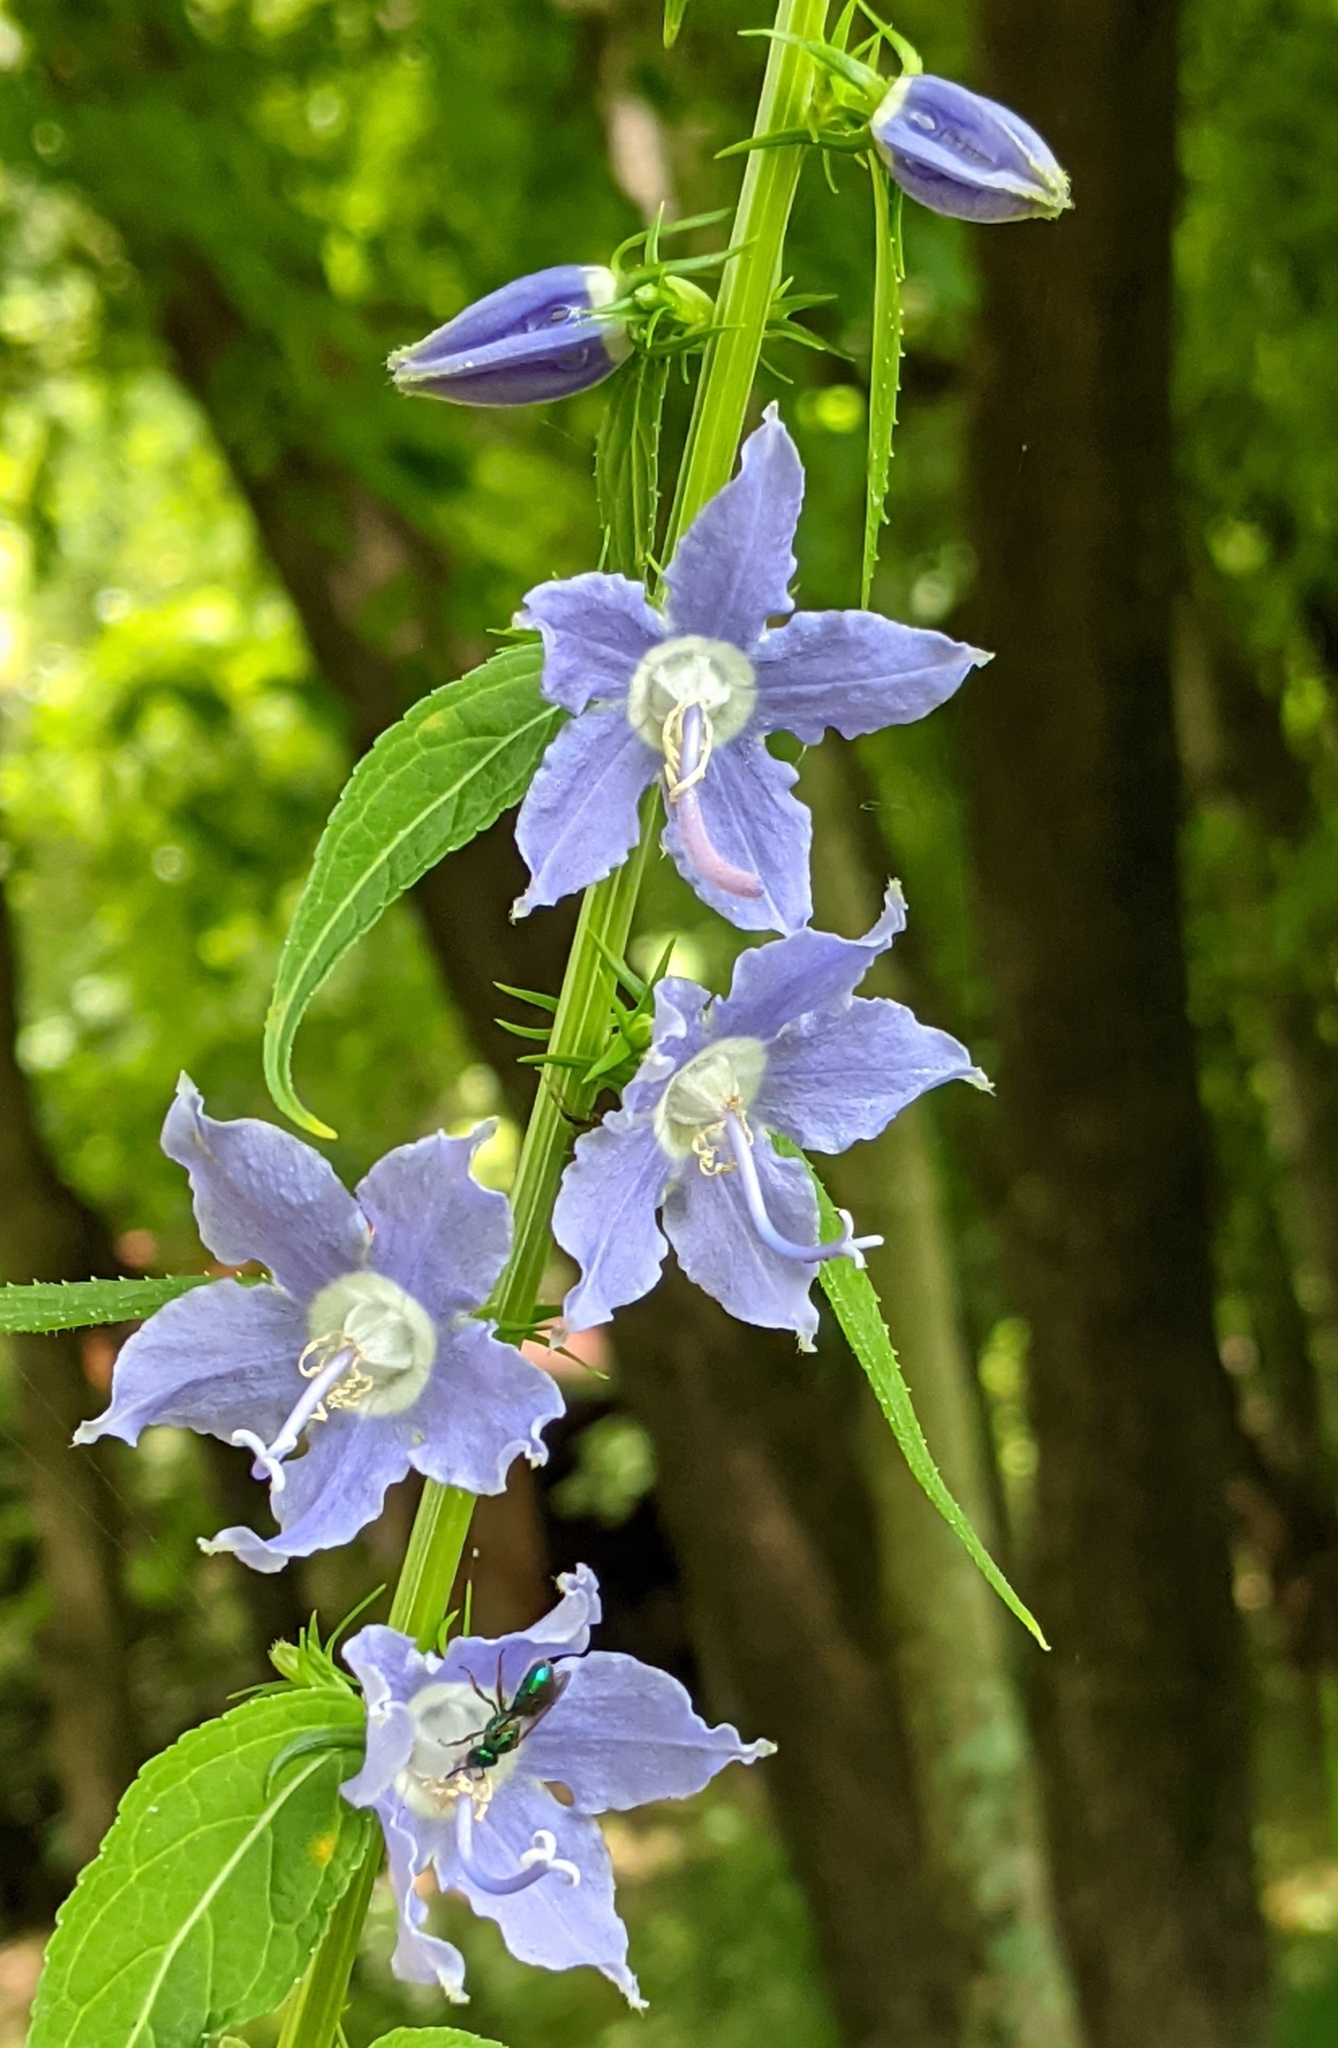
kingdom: Plantae
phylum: Tracheophyta
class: Magnoliopsida
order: Asterales
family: Campanulaceae
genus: Campanulastrum
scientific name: Campanulastrum americanum
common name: American bellflower
